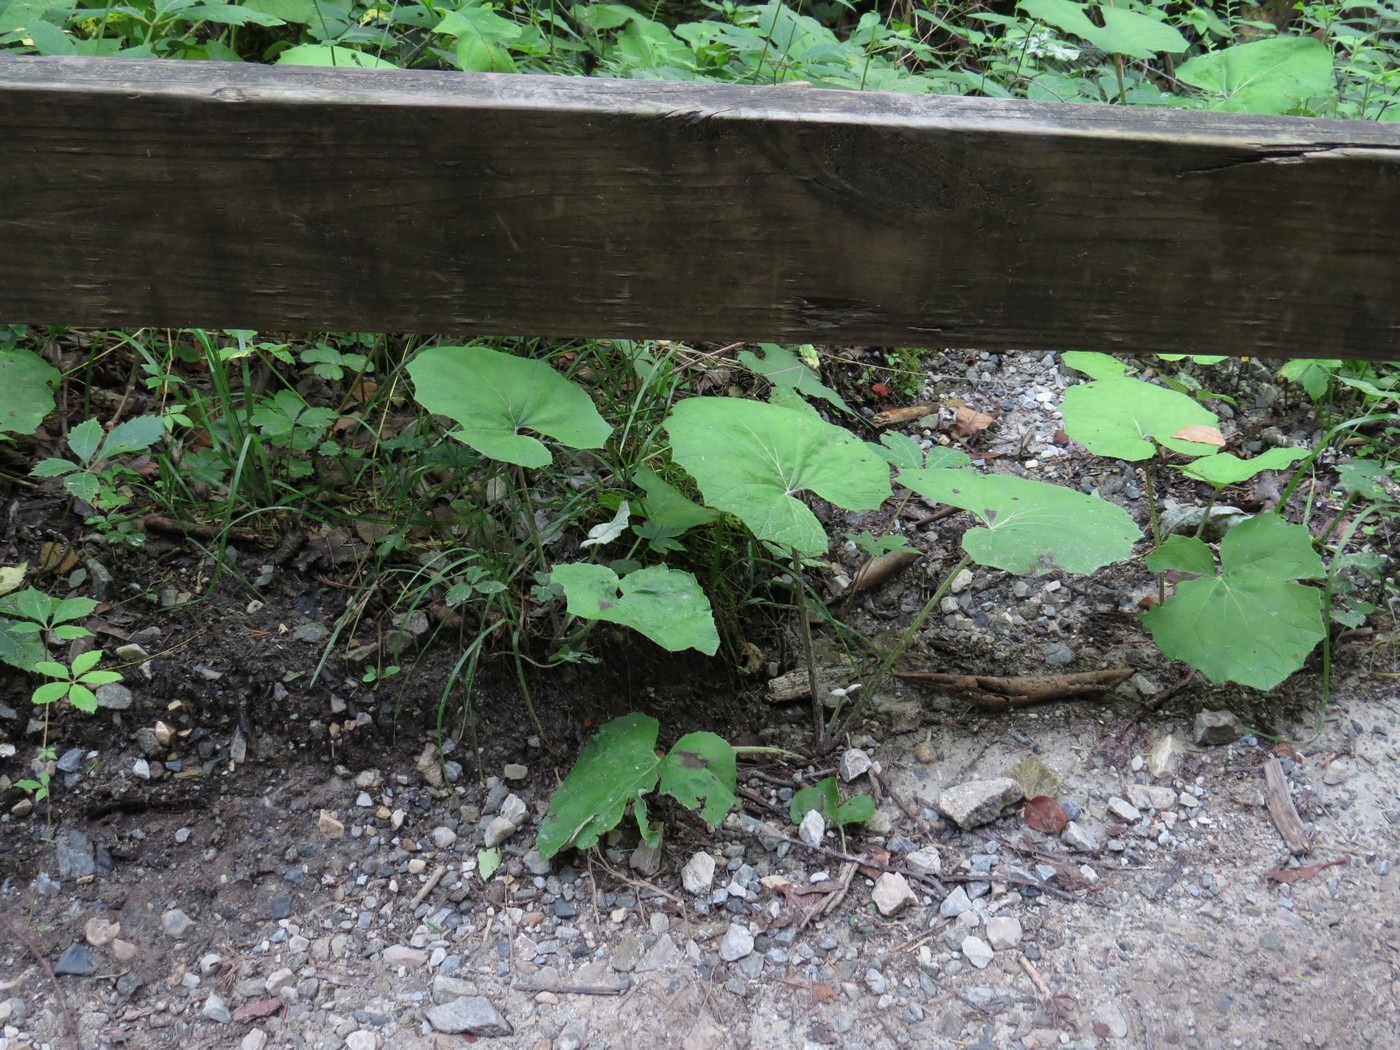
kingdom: Plantae
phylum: Tracheophyta
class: Magnoliopsida
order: Asterales
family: Asteraceae
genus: Tussilago
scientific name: Tussilago farfara
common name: Coltsfoot
